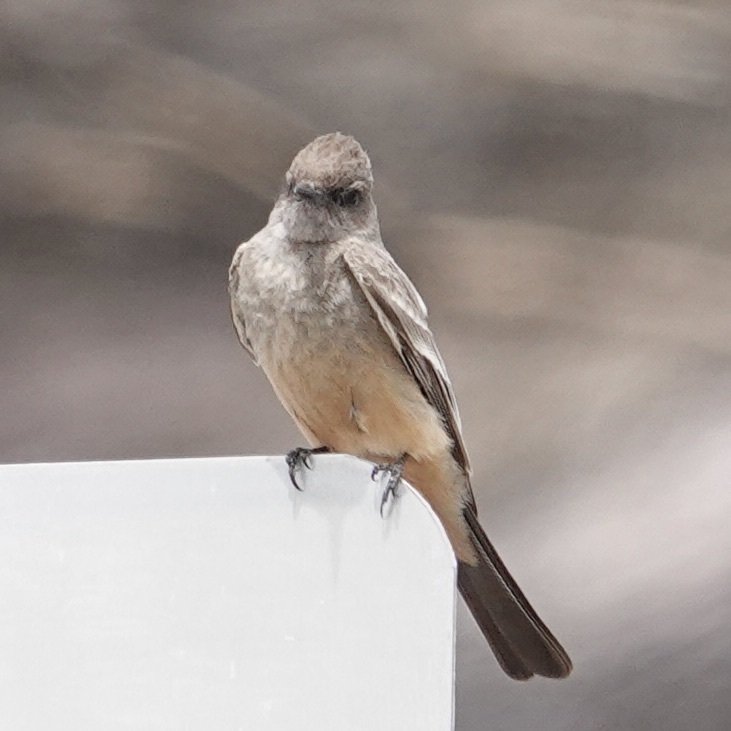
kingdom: Animalia
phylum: Chordata
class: Aves
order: Passeriformes
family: Tyrannidae
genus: Sayornis
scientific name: Sayornis saya
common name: Say's phoebe
